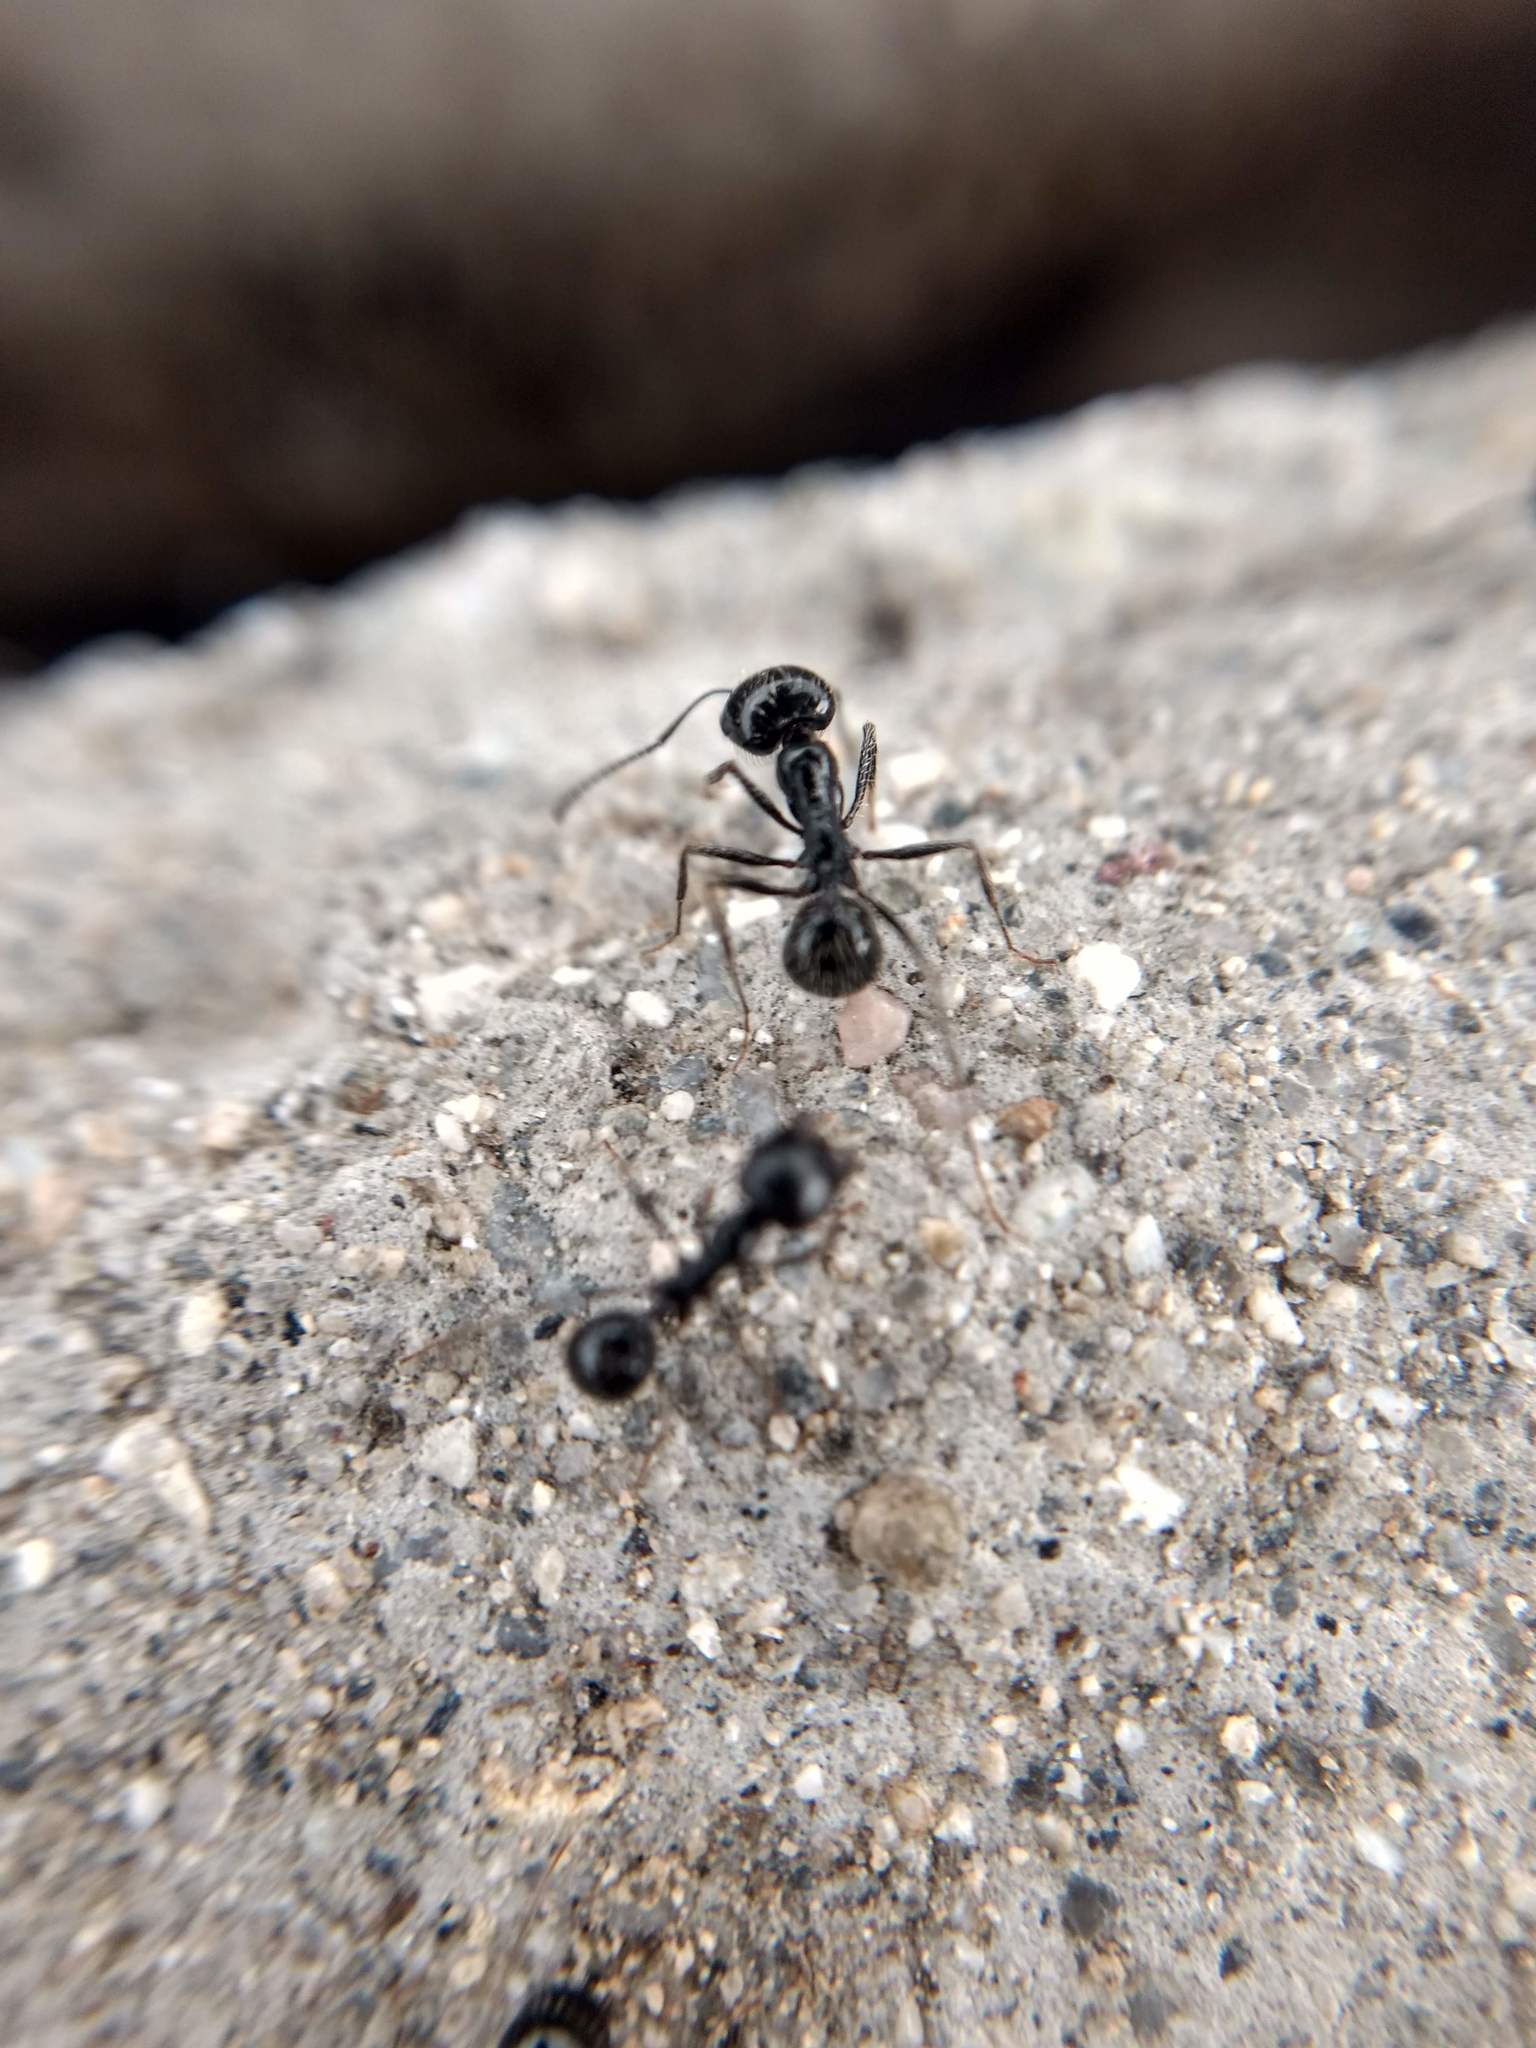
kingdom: Animalia
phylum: Arthropoda
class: Insecta
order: Hymenoptera
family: Formicidae
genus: Messor
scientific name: Messor pergandei
